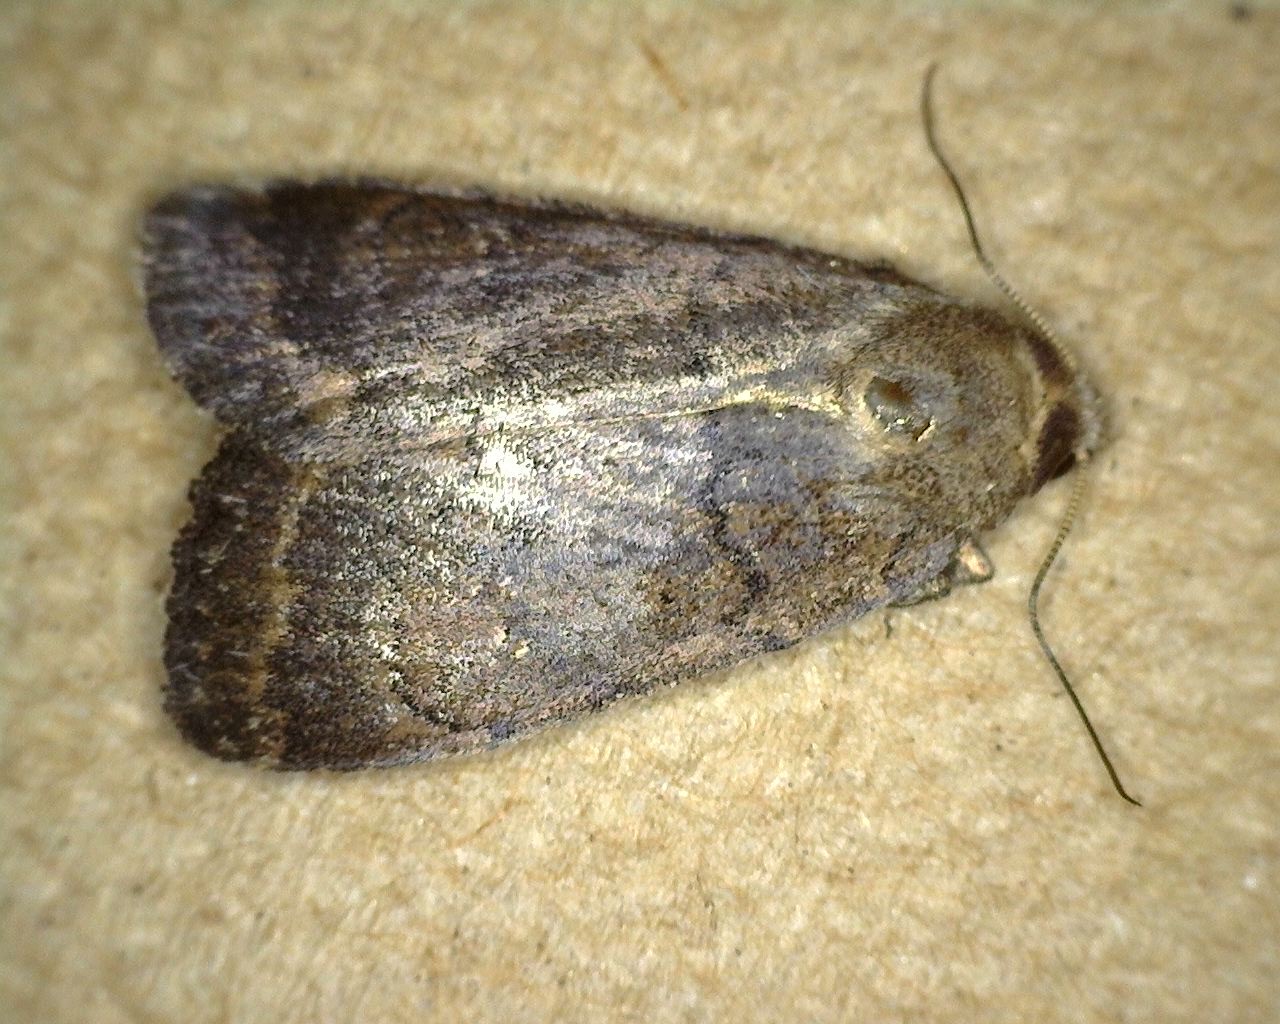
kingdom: Animalia
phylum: Arthropoda
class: Insecta
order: Lepidoptera
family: Noctuidae
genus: Athetis
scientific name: Athetis tarda
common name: Slowpoke moth
